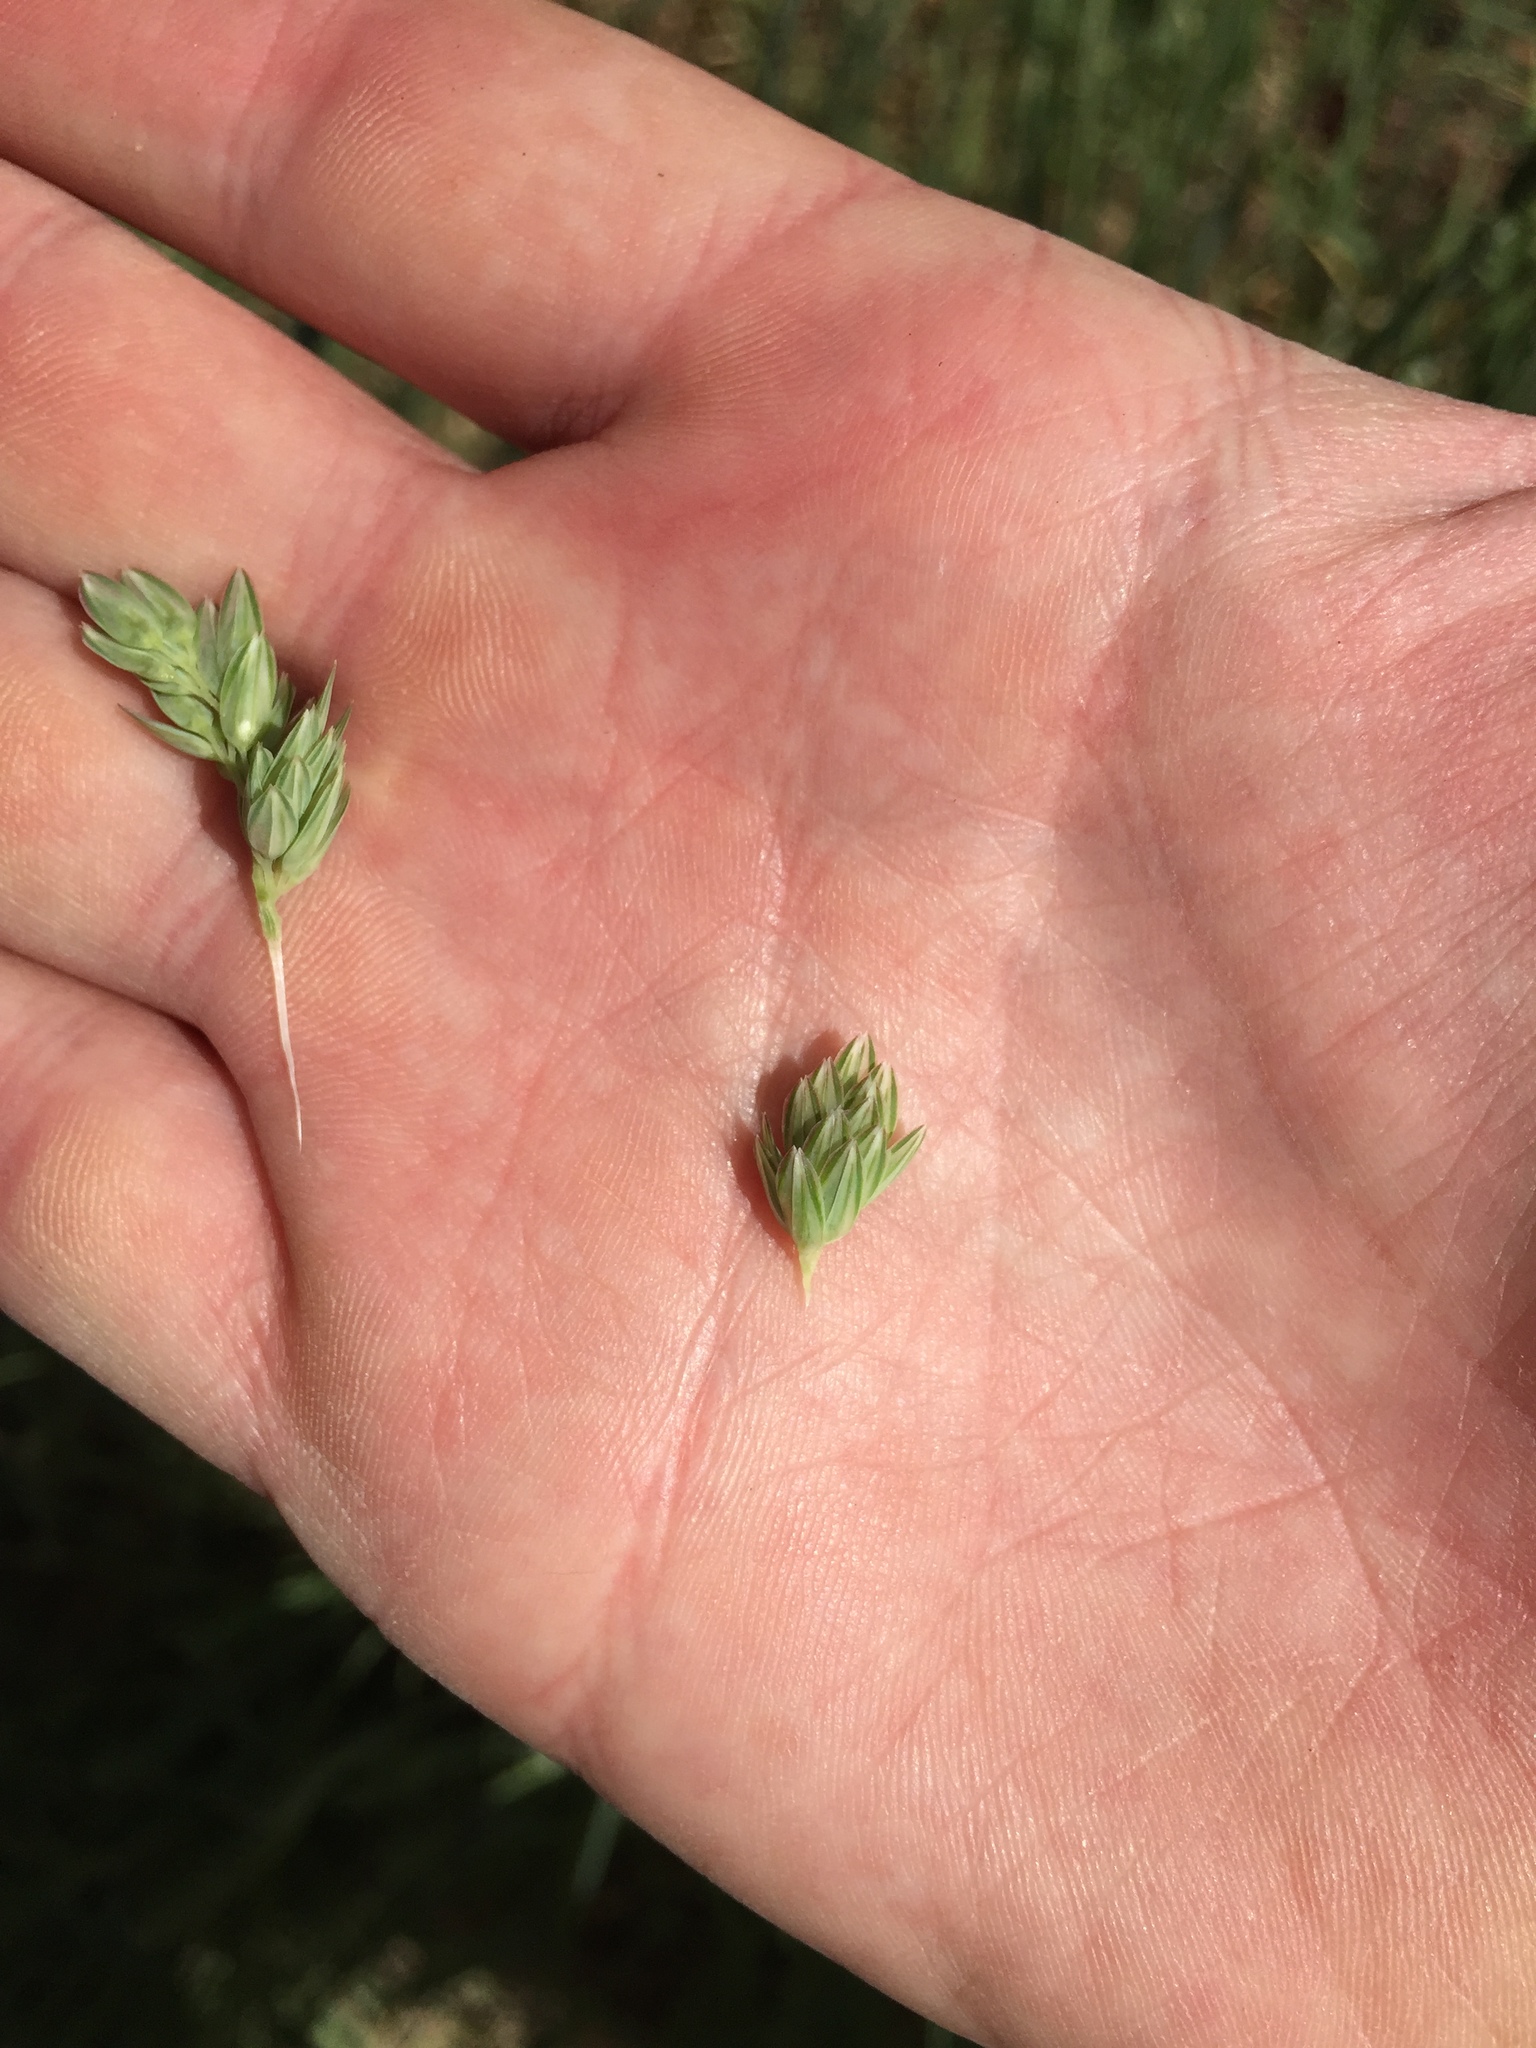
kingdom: Plantae
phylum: Tracheophyta
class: Liliopsida
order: Poales
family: Poaceae
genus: Phalaris
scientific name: Phalaris aquatica
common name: Bulbous canary-grass
